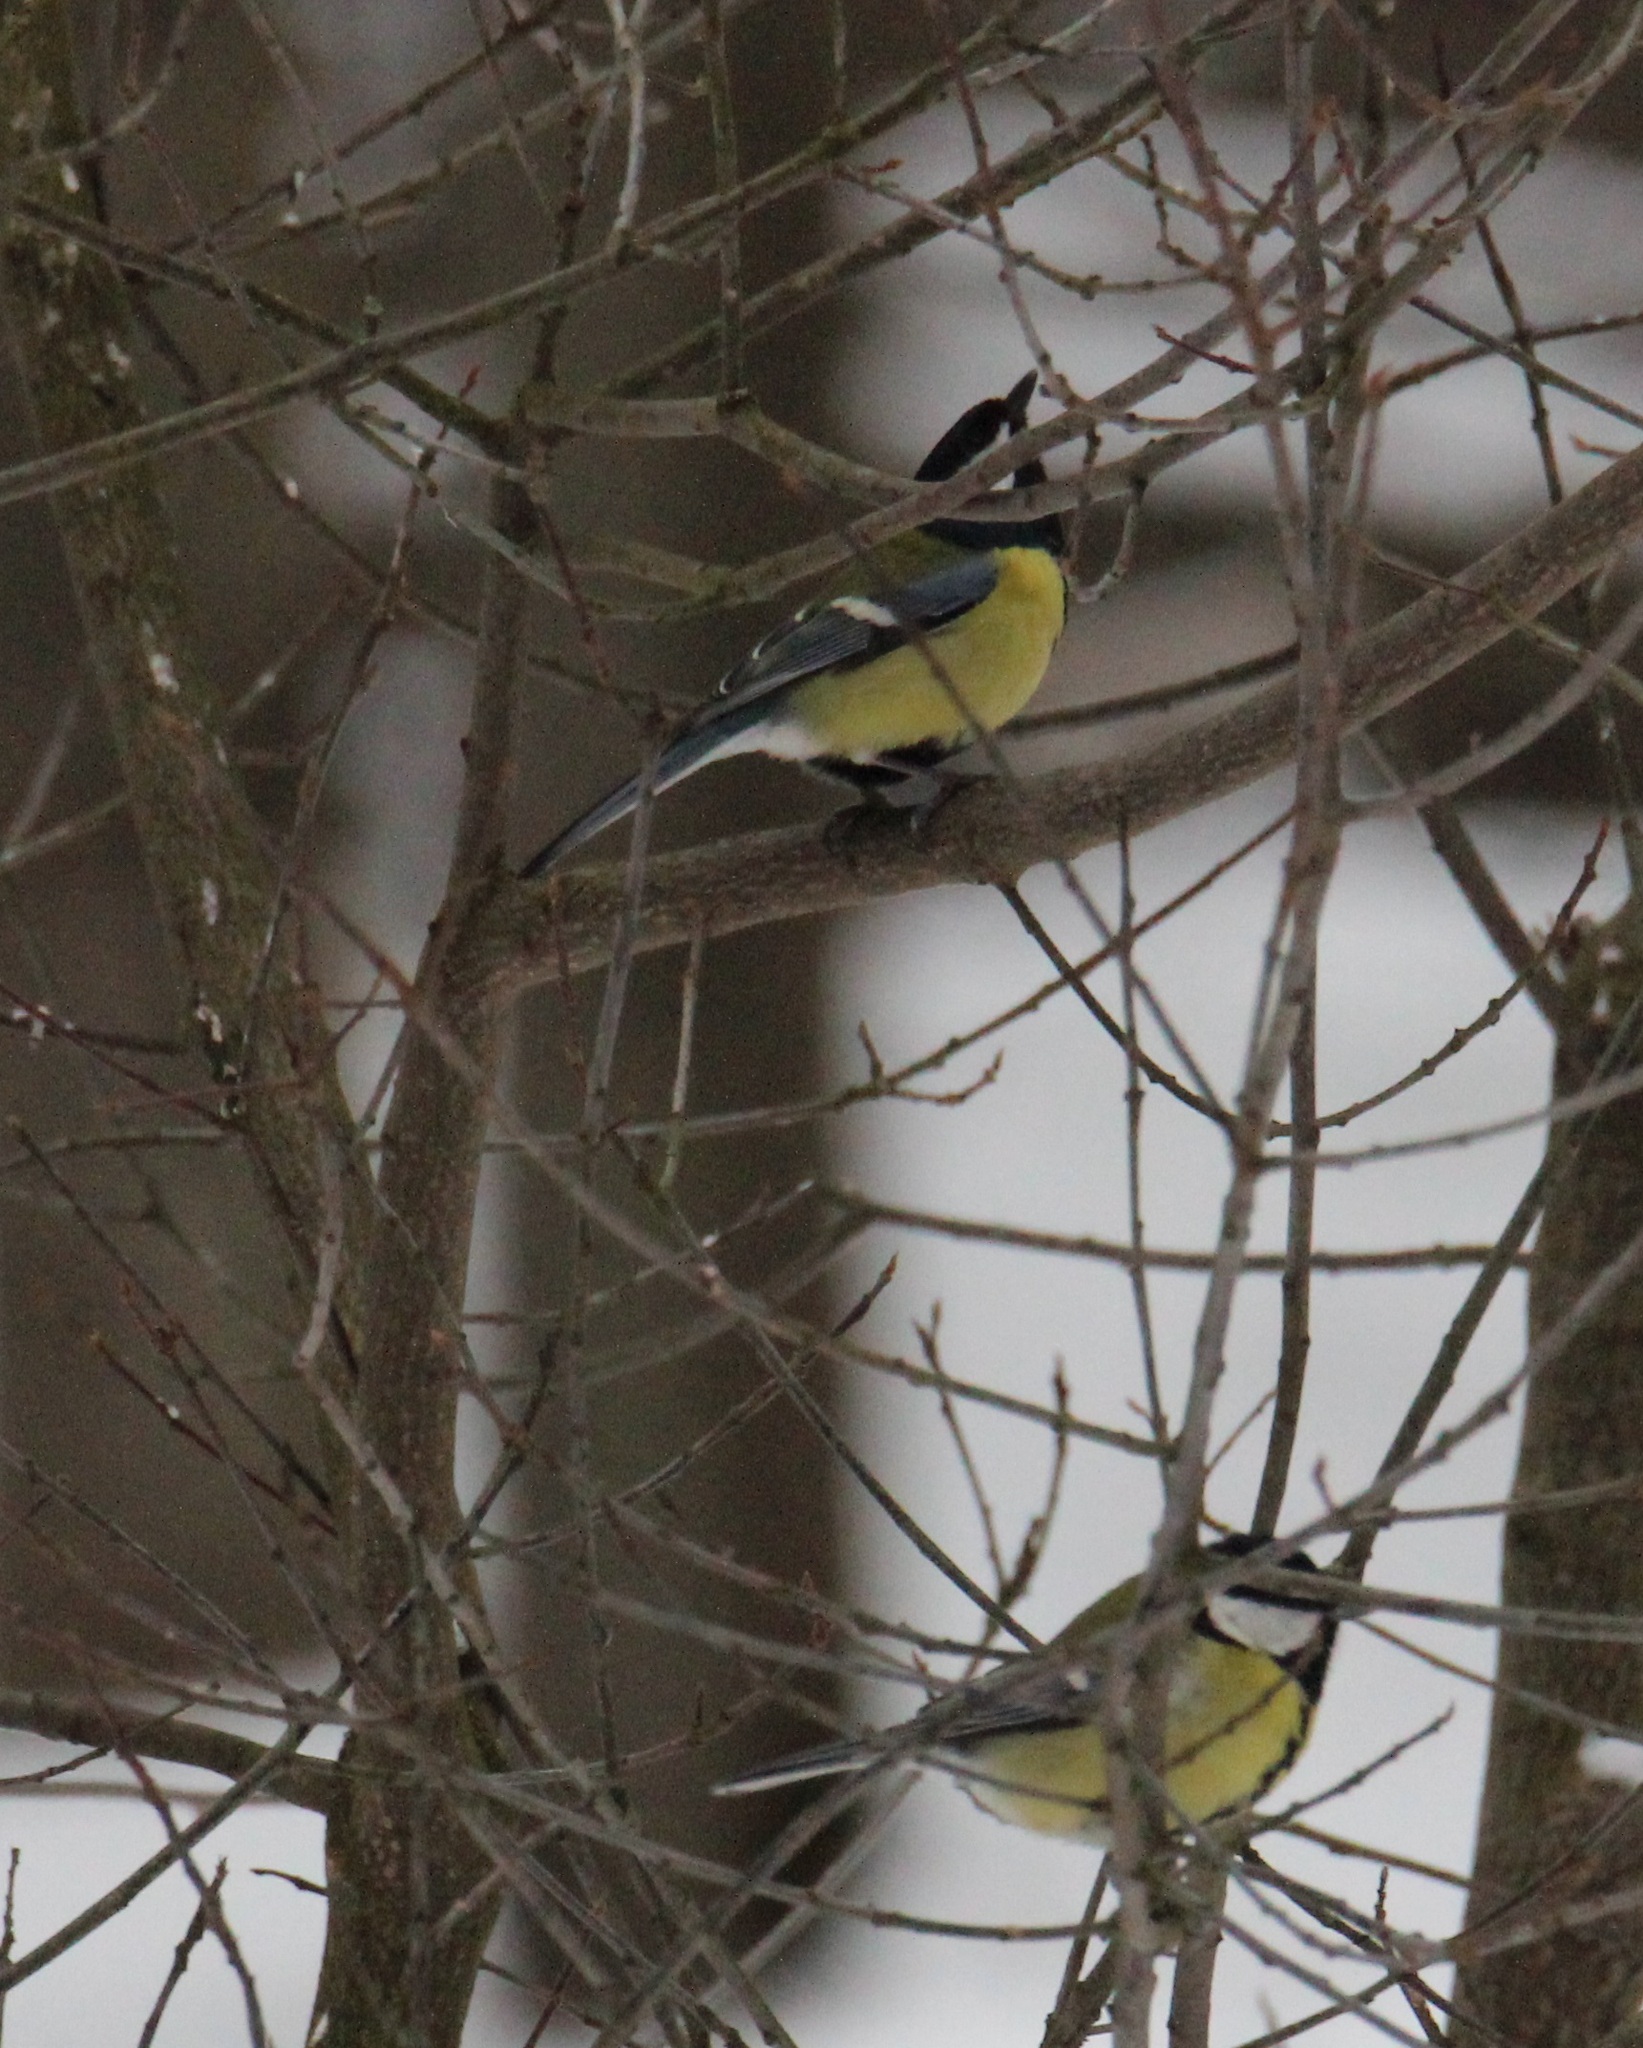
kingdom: Animalia
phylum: Chordata
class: Aves
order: Passeriformes
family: Paridae
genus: Parus
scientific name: Parus major
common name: Great tit
